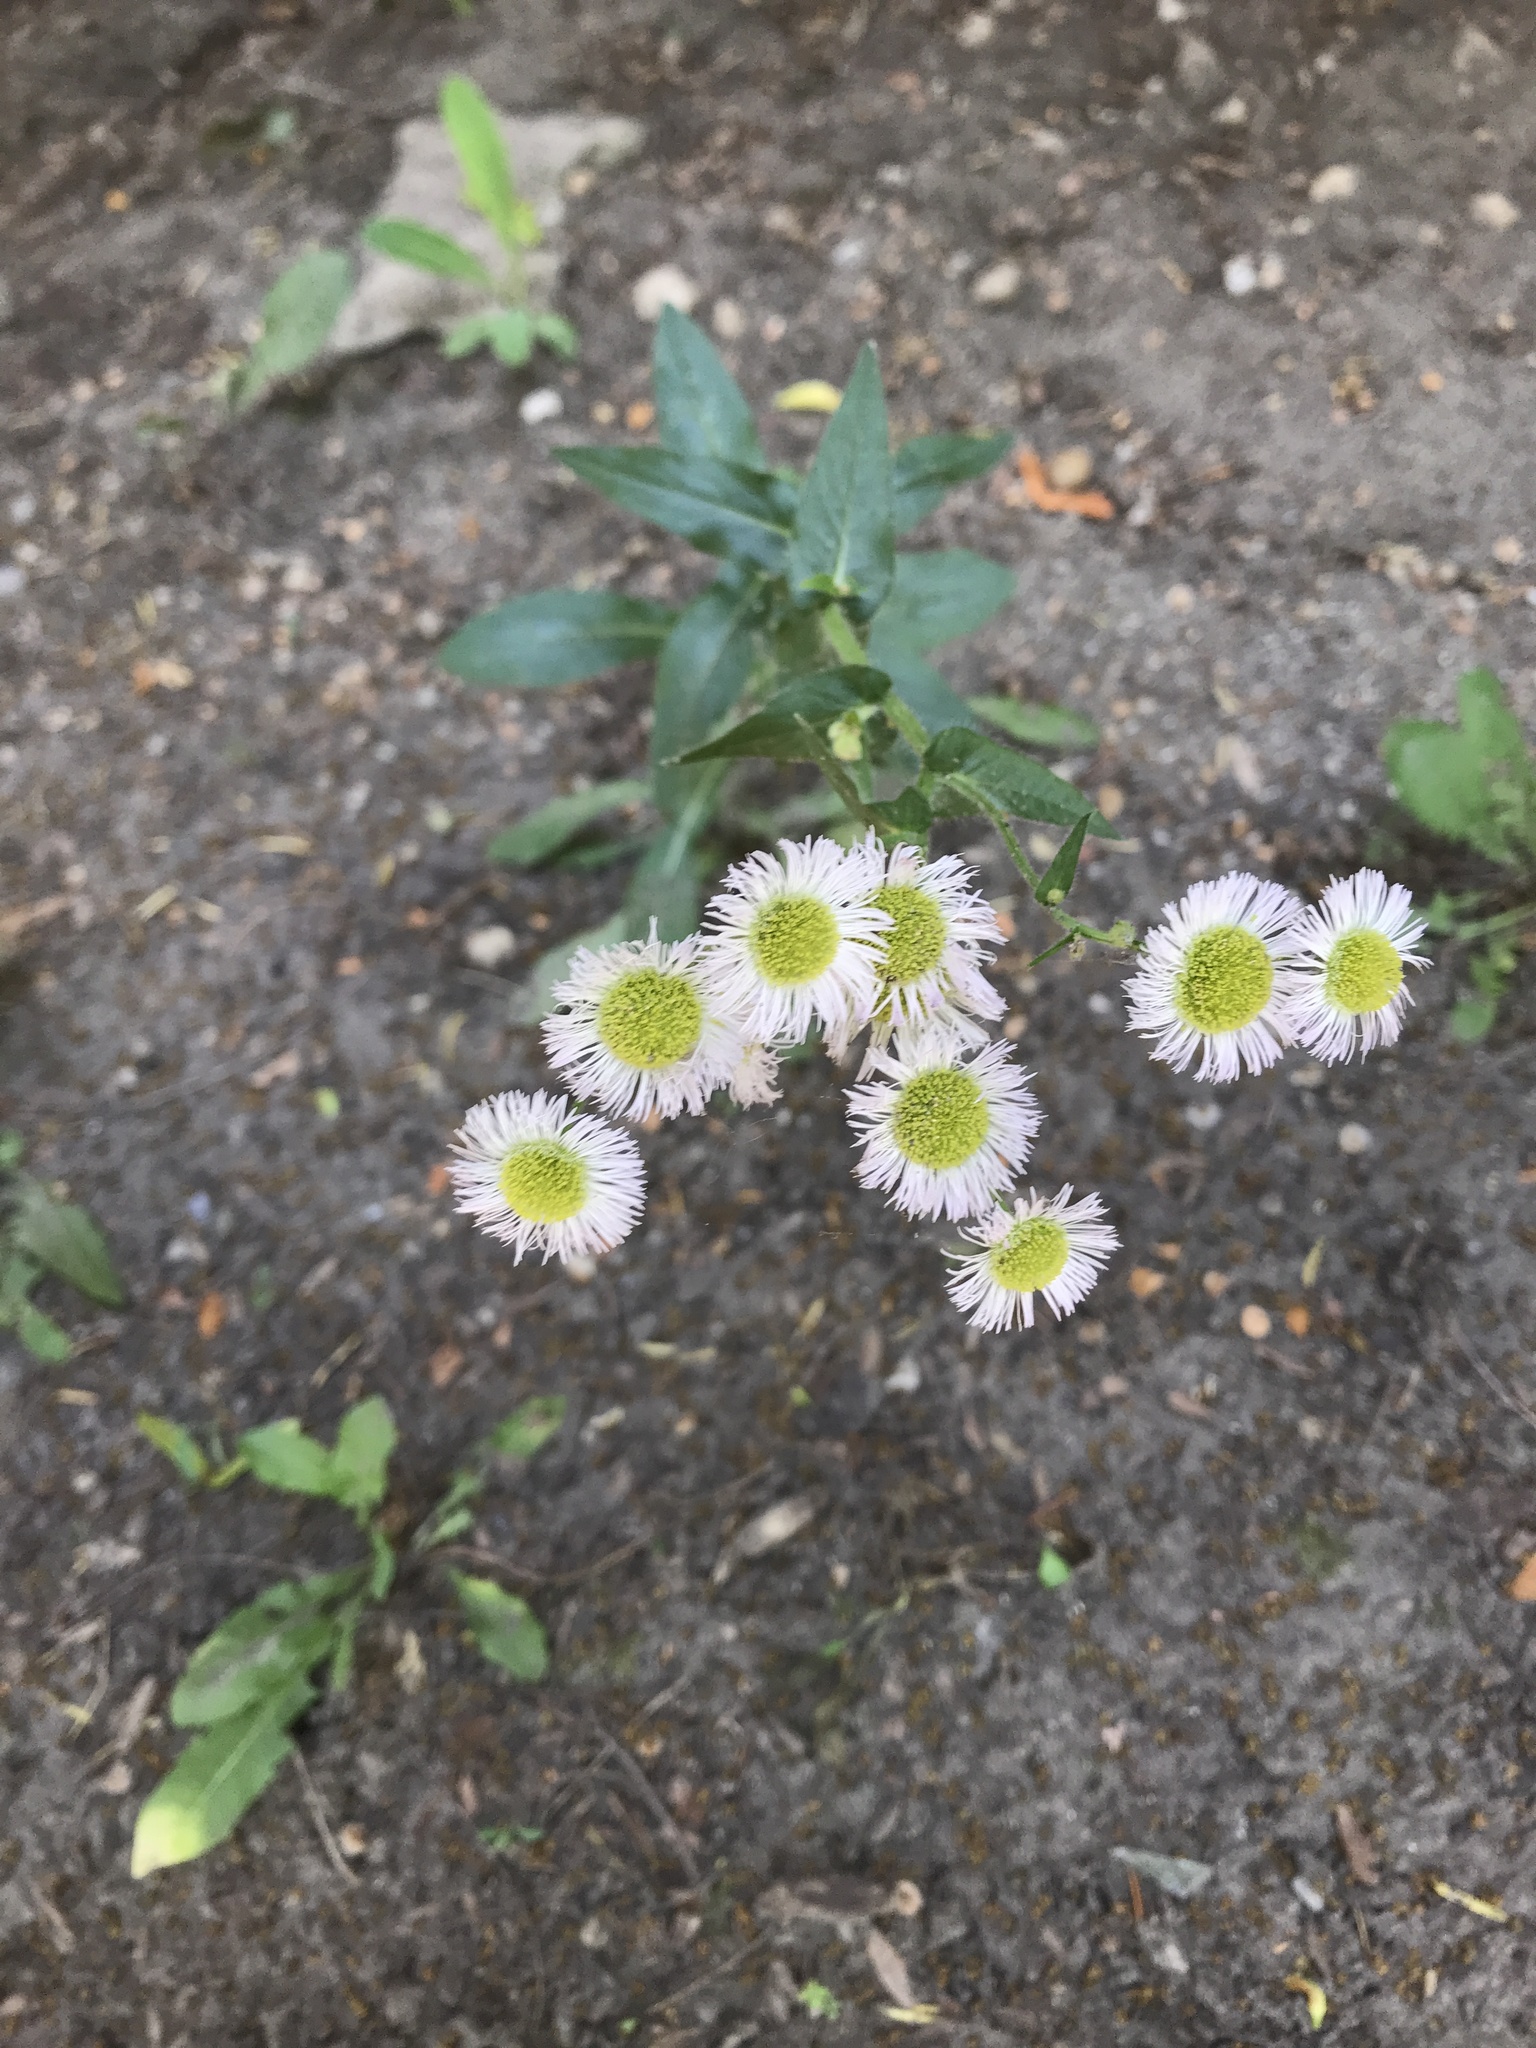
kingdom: Plantae
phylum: Tracheophyta
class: Magnoliopsida
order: Asterales
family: Asteraceae
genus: Erigeron
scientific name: Erigeron philadelphicus
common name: Robin's-plantain
